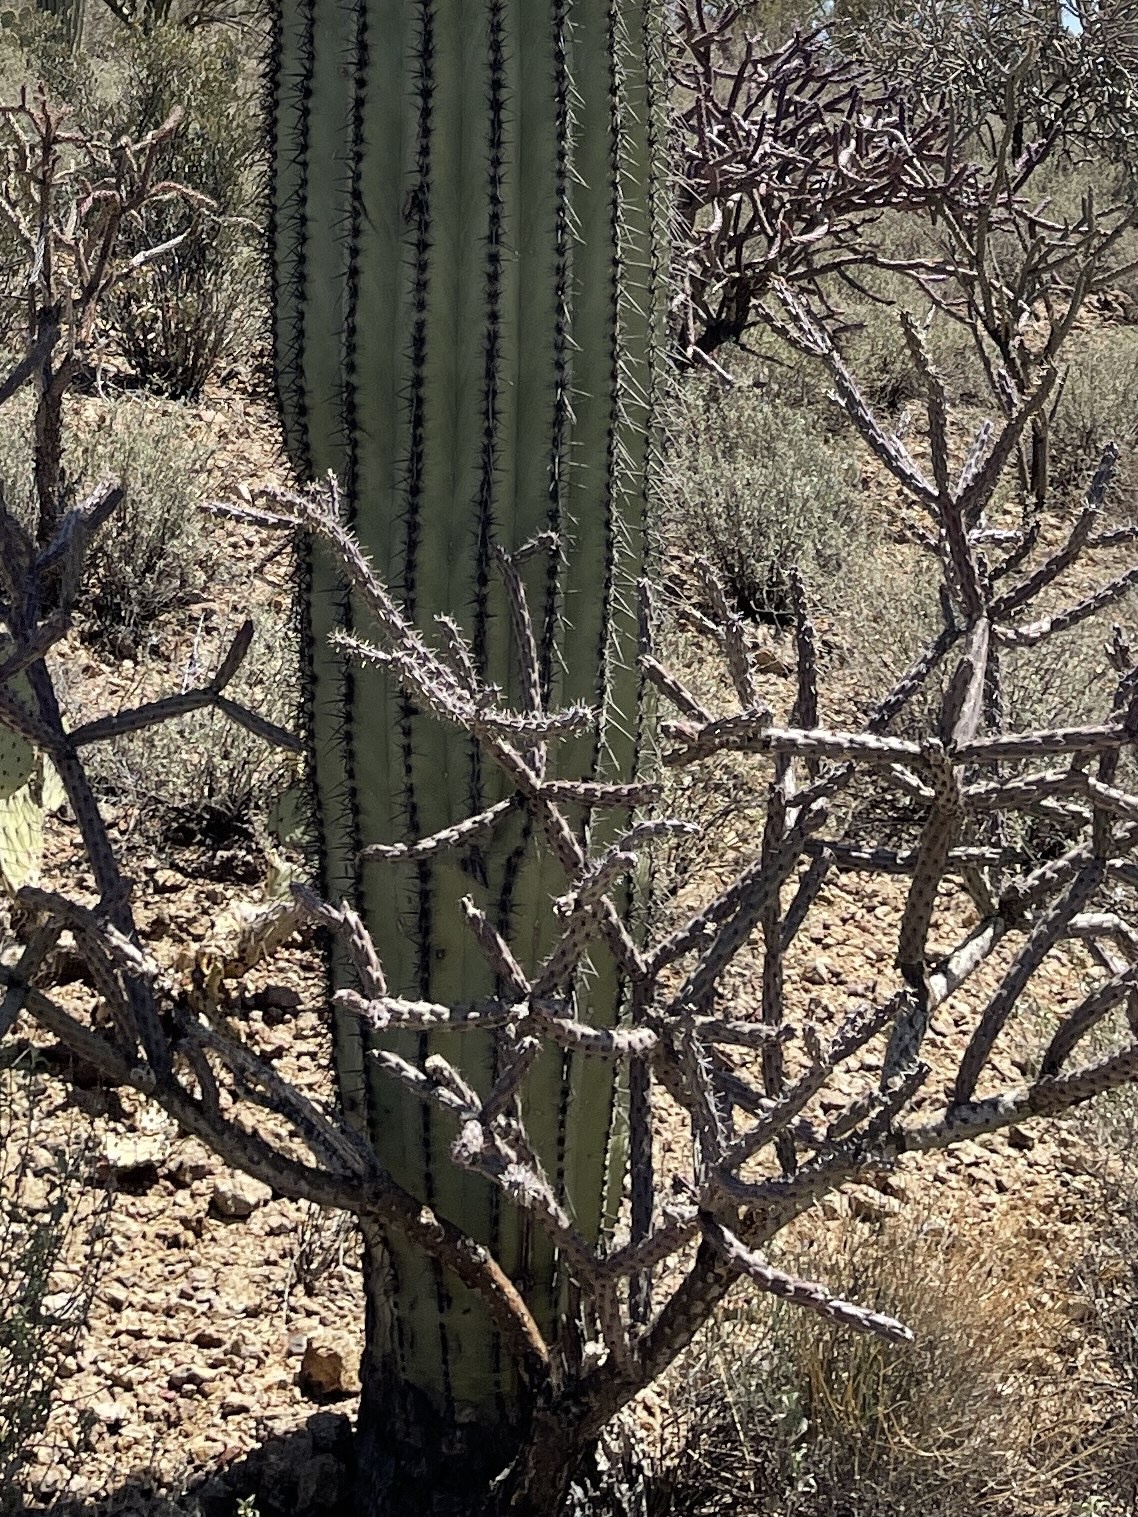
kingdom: Plantae
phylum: Tracheophyta
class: Magnoliopsida
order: Caryophyllales
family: Cactaceae
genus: Cylindropuntia
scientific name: Cylindropuntia thurberi
